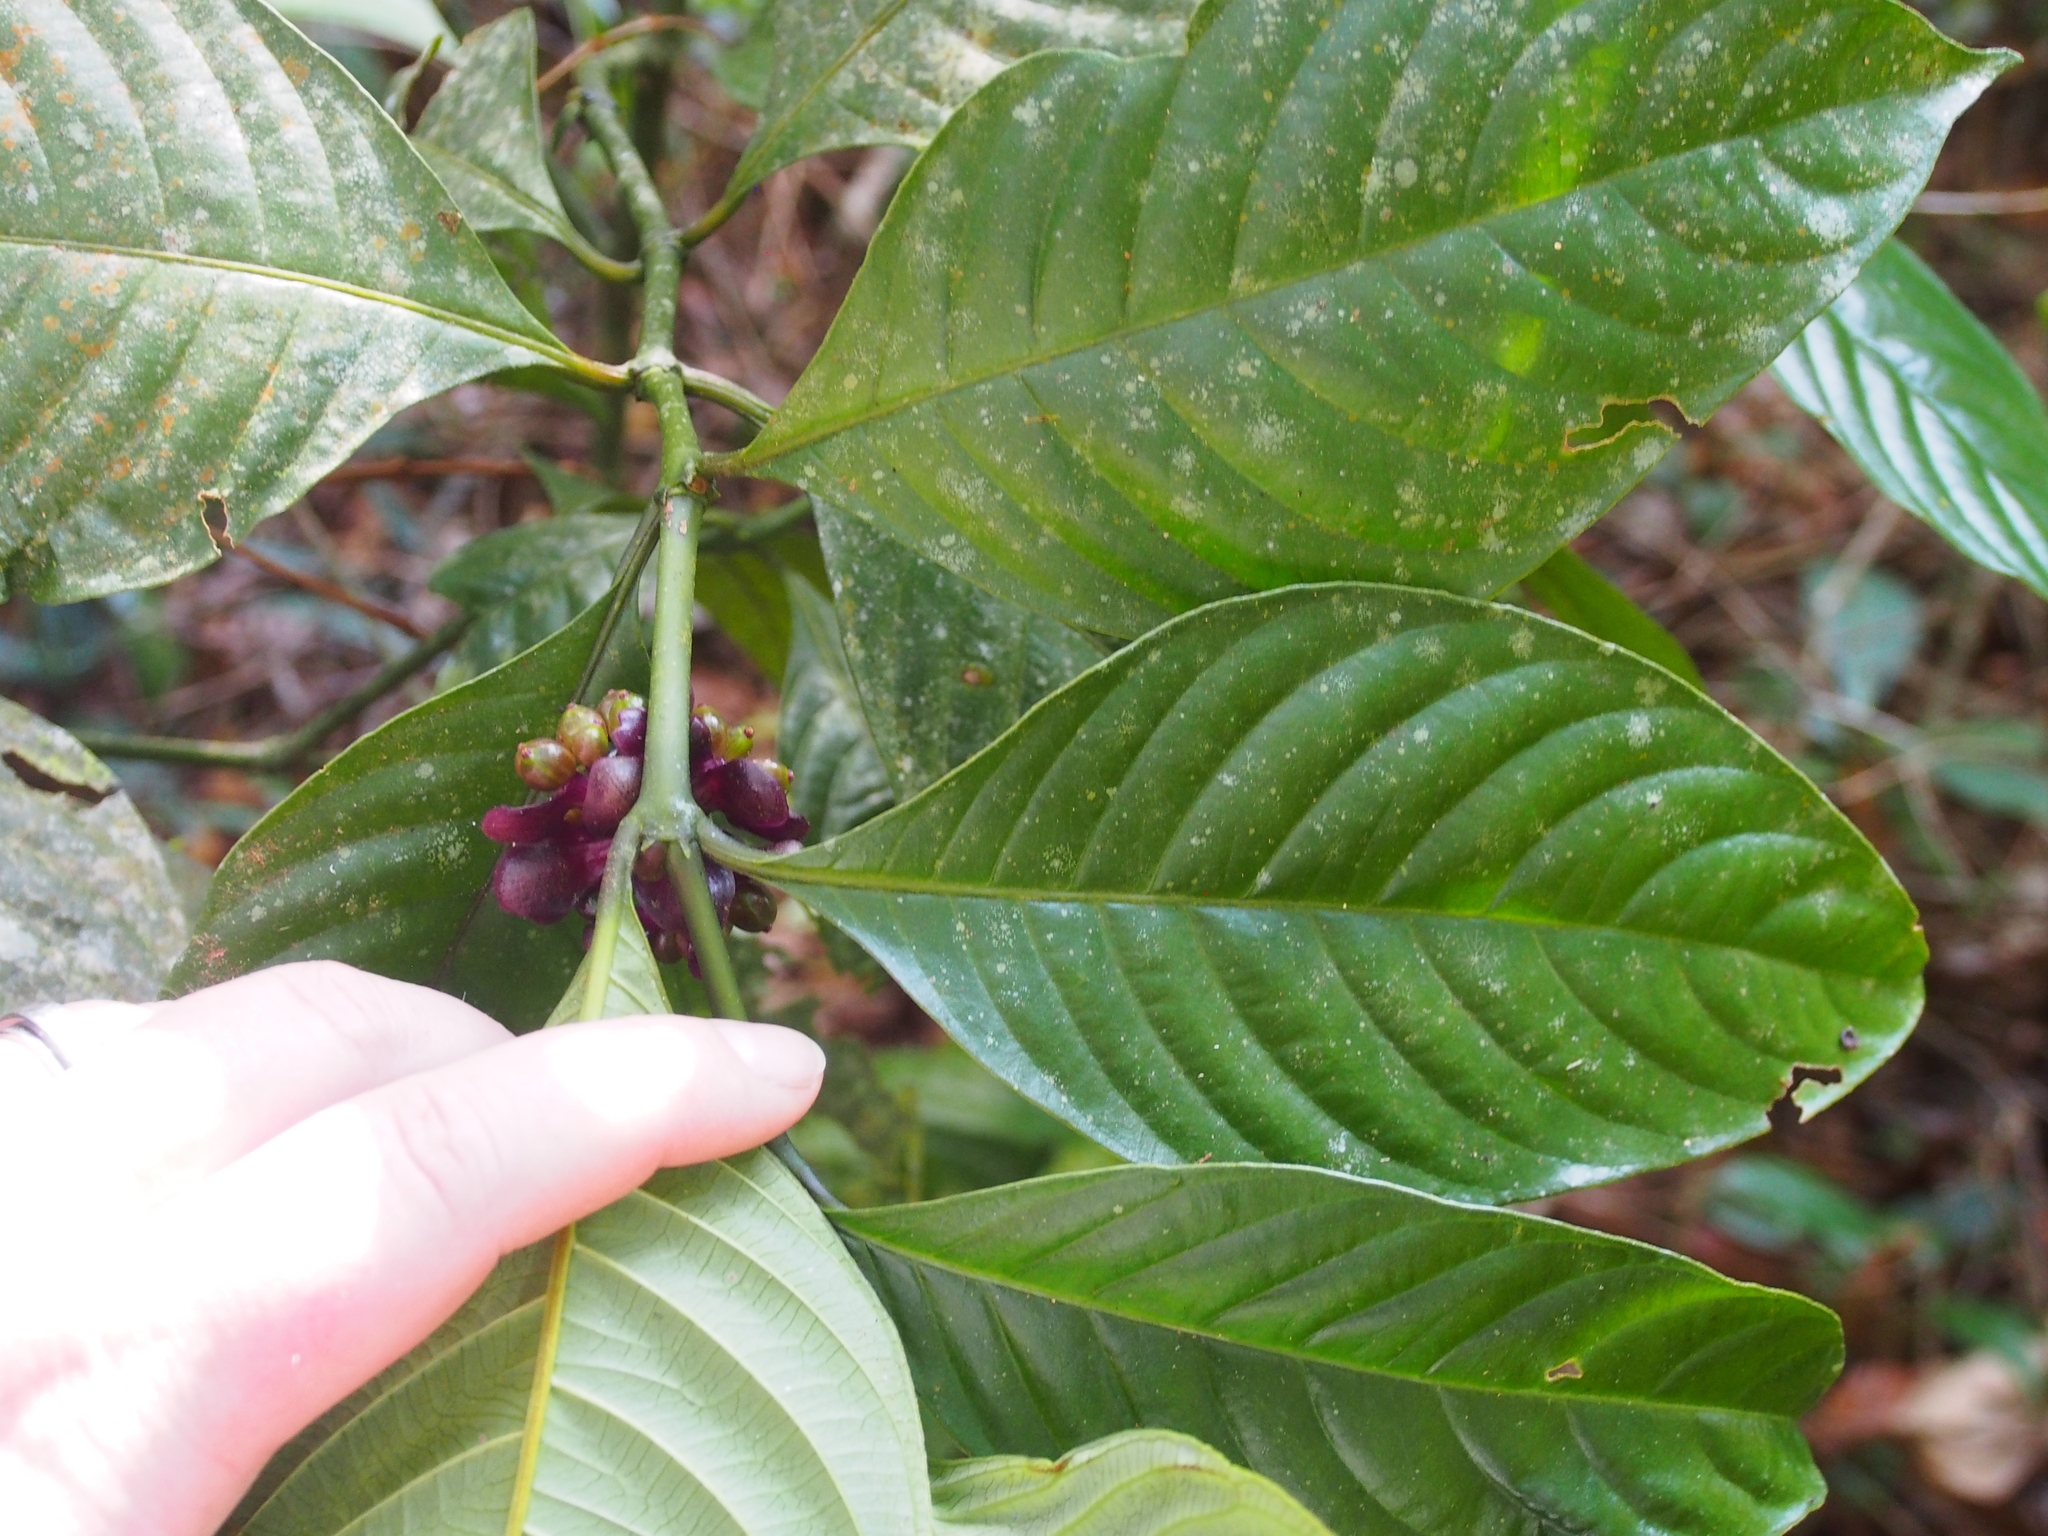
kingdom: Plantae
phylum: Tracheophyta
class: Magnoliopsida
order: Gentianales
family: Rubiaceae
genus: Palicourea
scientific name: Palicourea dichotoma
